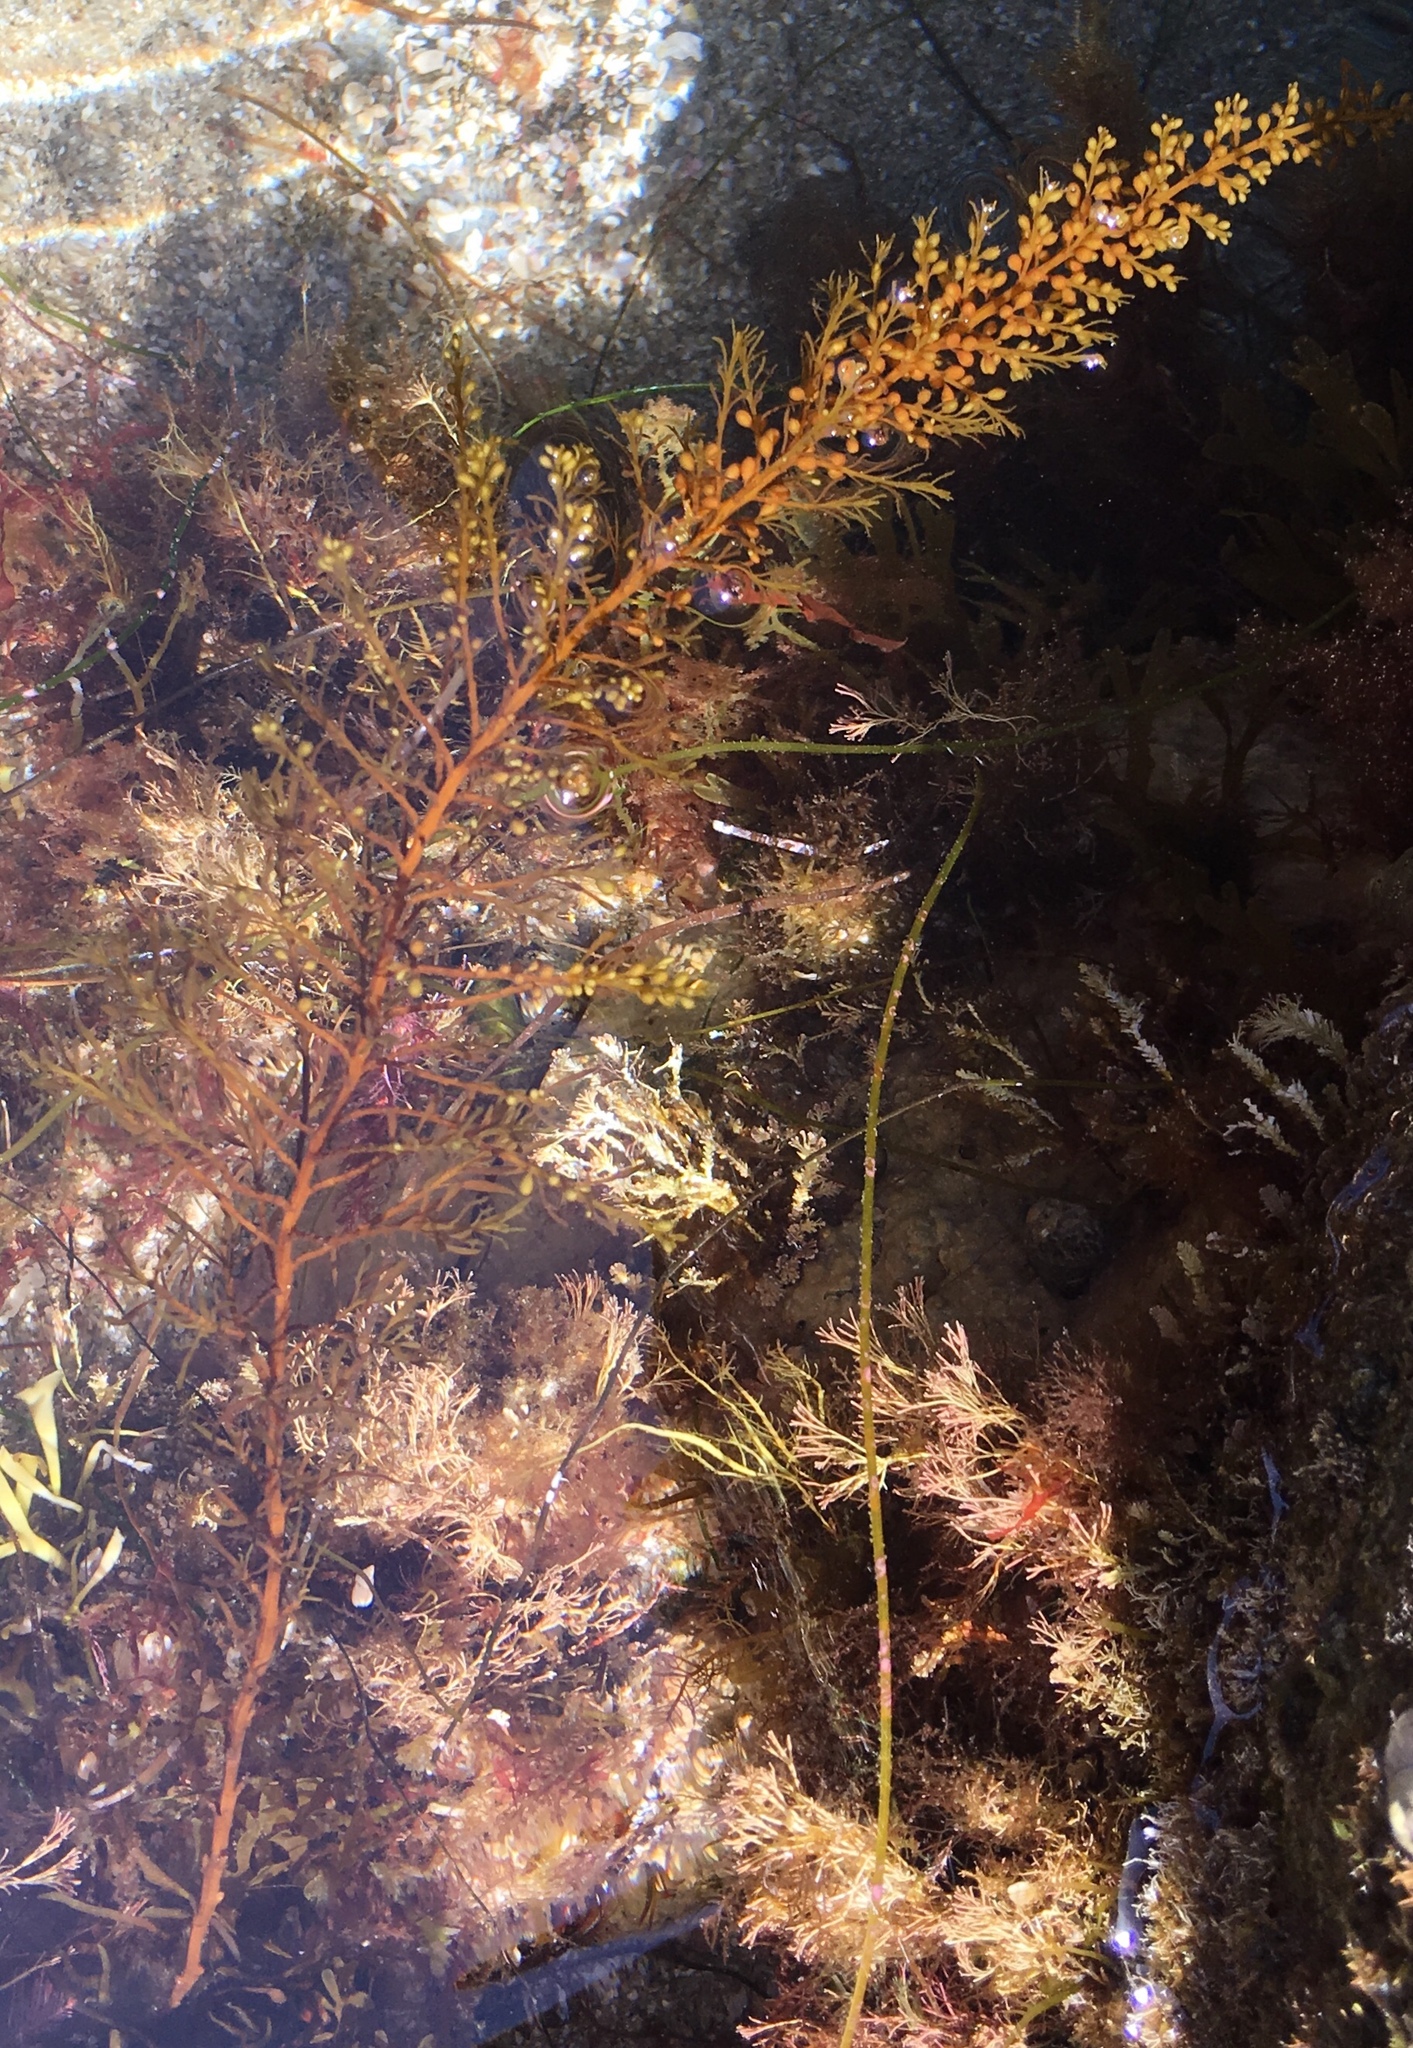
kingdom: Chromista
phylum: Ochrophyta
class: Phaeophyceae
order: Fucales
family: Sargassaceae
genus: Sargassum
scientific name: Sargassum muticum
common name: Japweed
